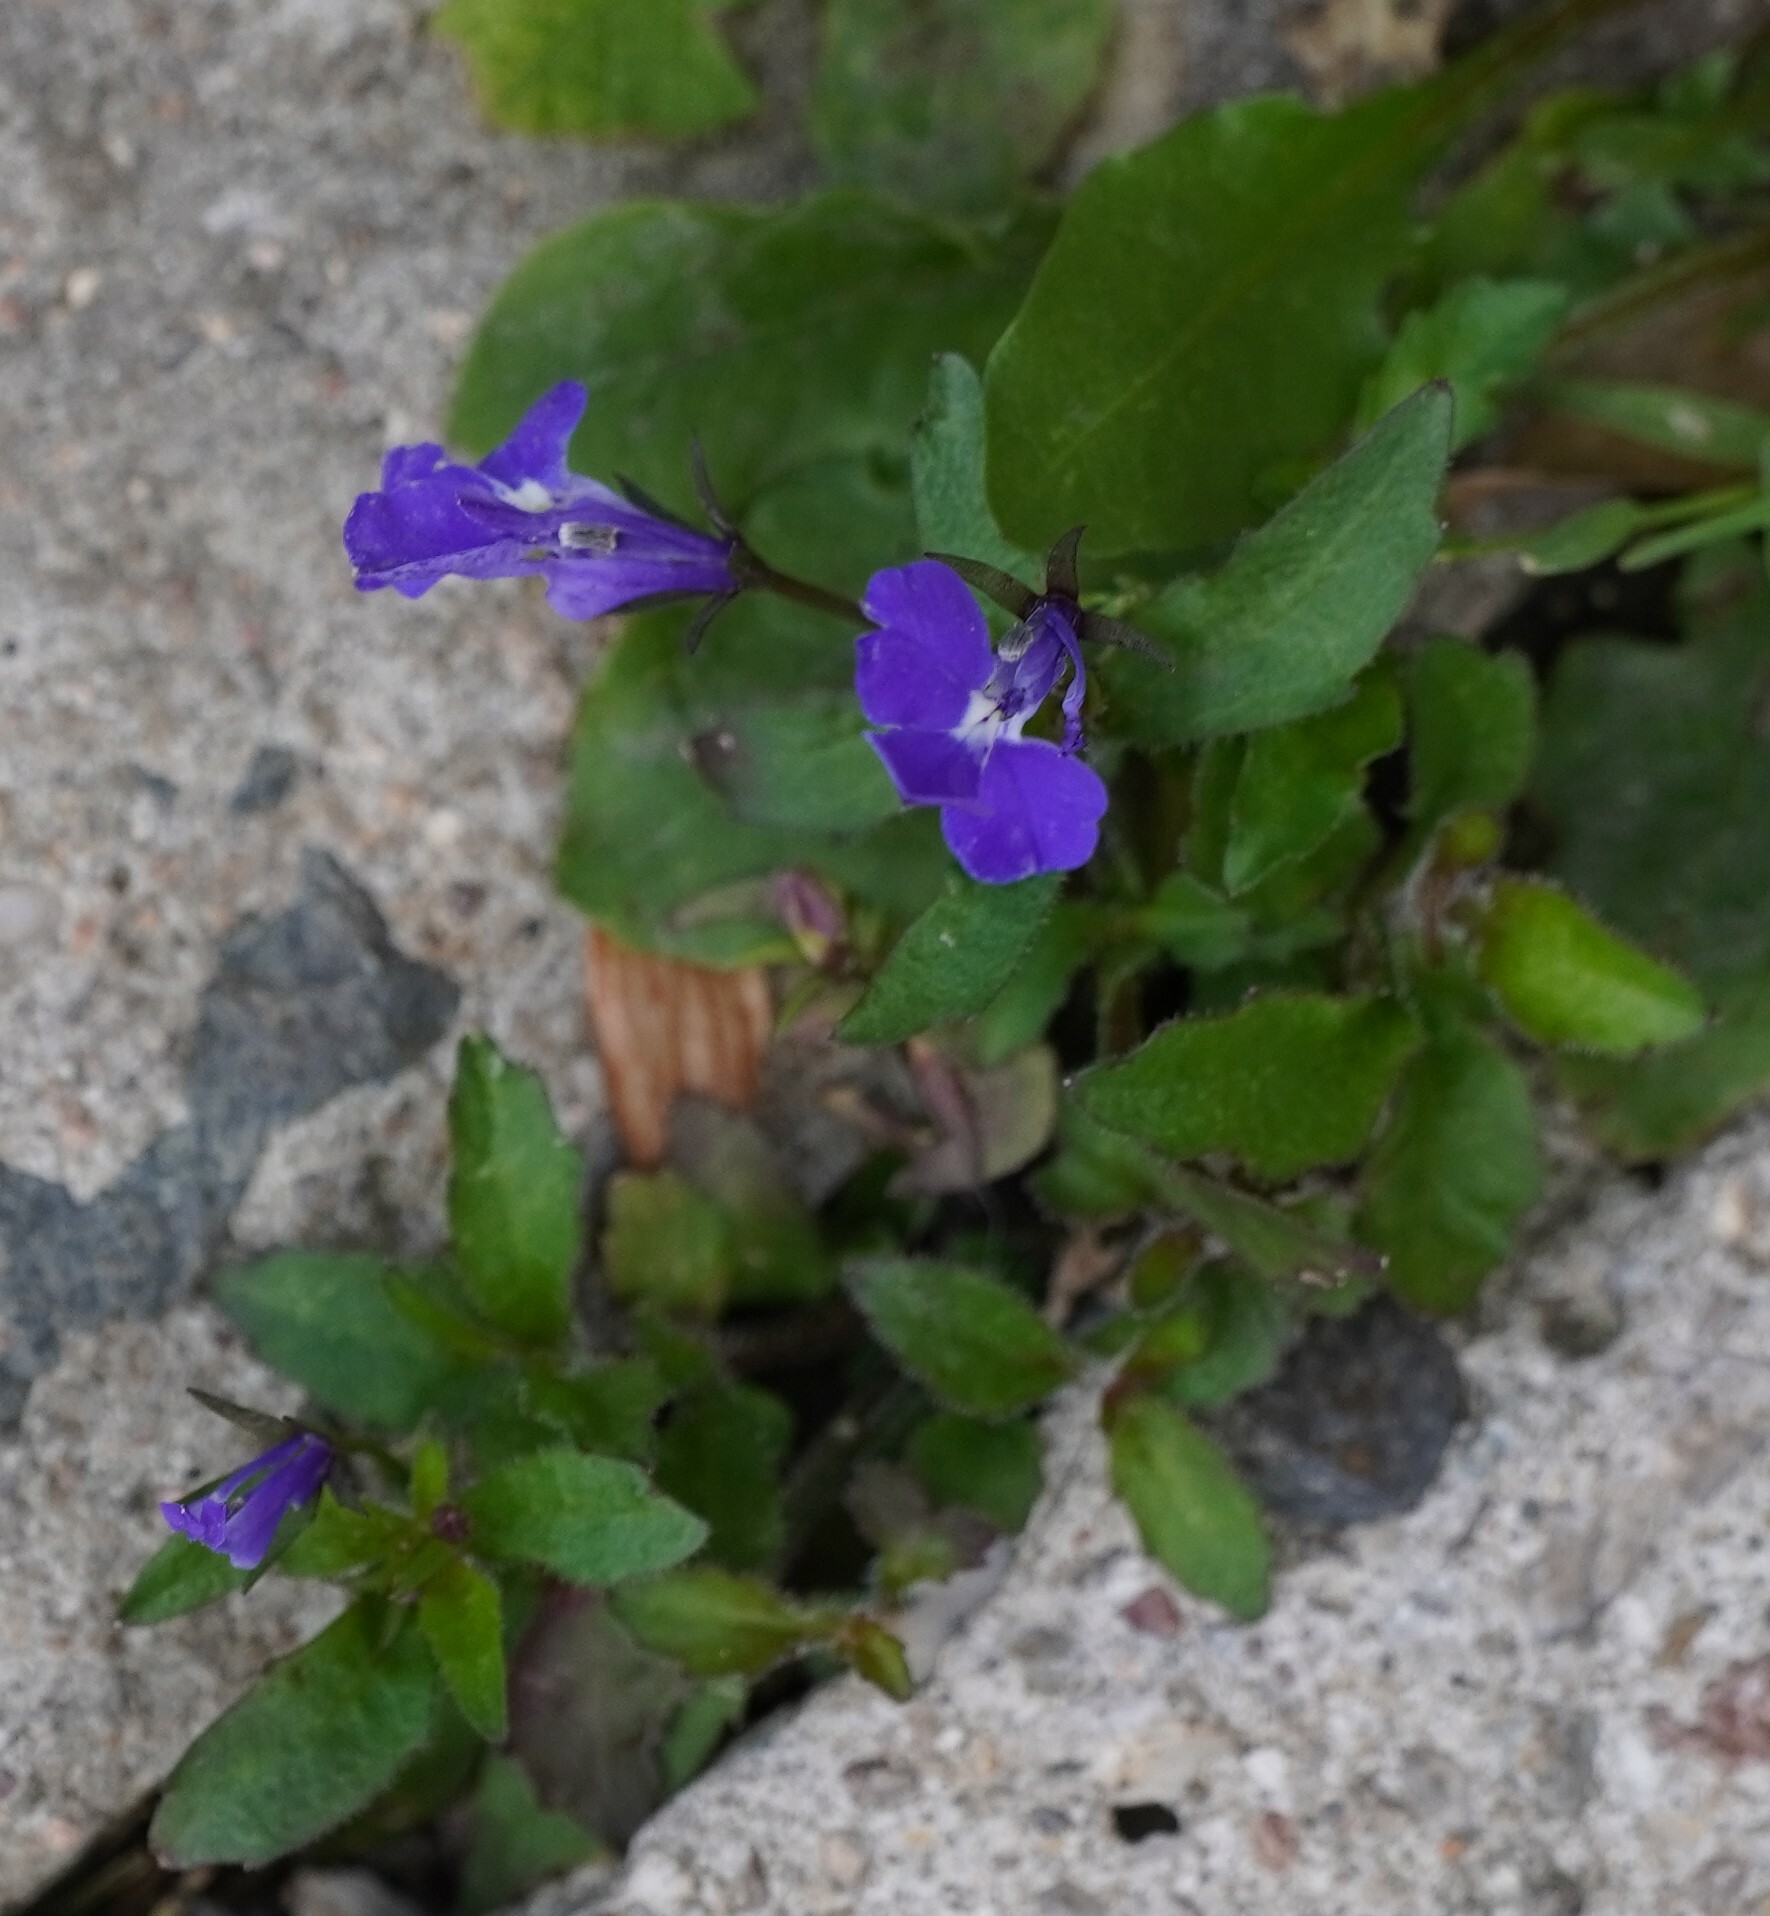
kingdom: Plantae
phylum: Tracheophyta
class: Magnoliopsida
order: Asterales
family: Campanulaceae
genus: Lobelia
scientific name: Lobelia erinus
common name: Edging lobelia
